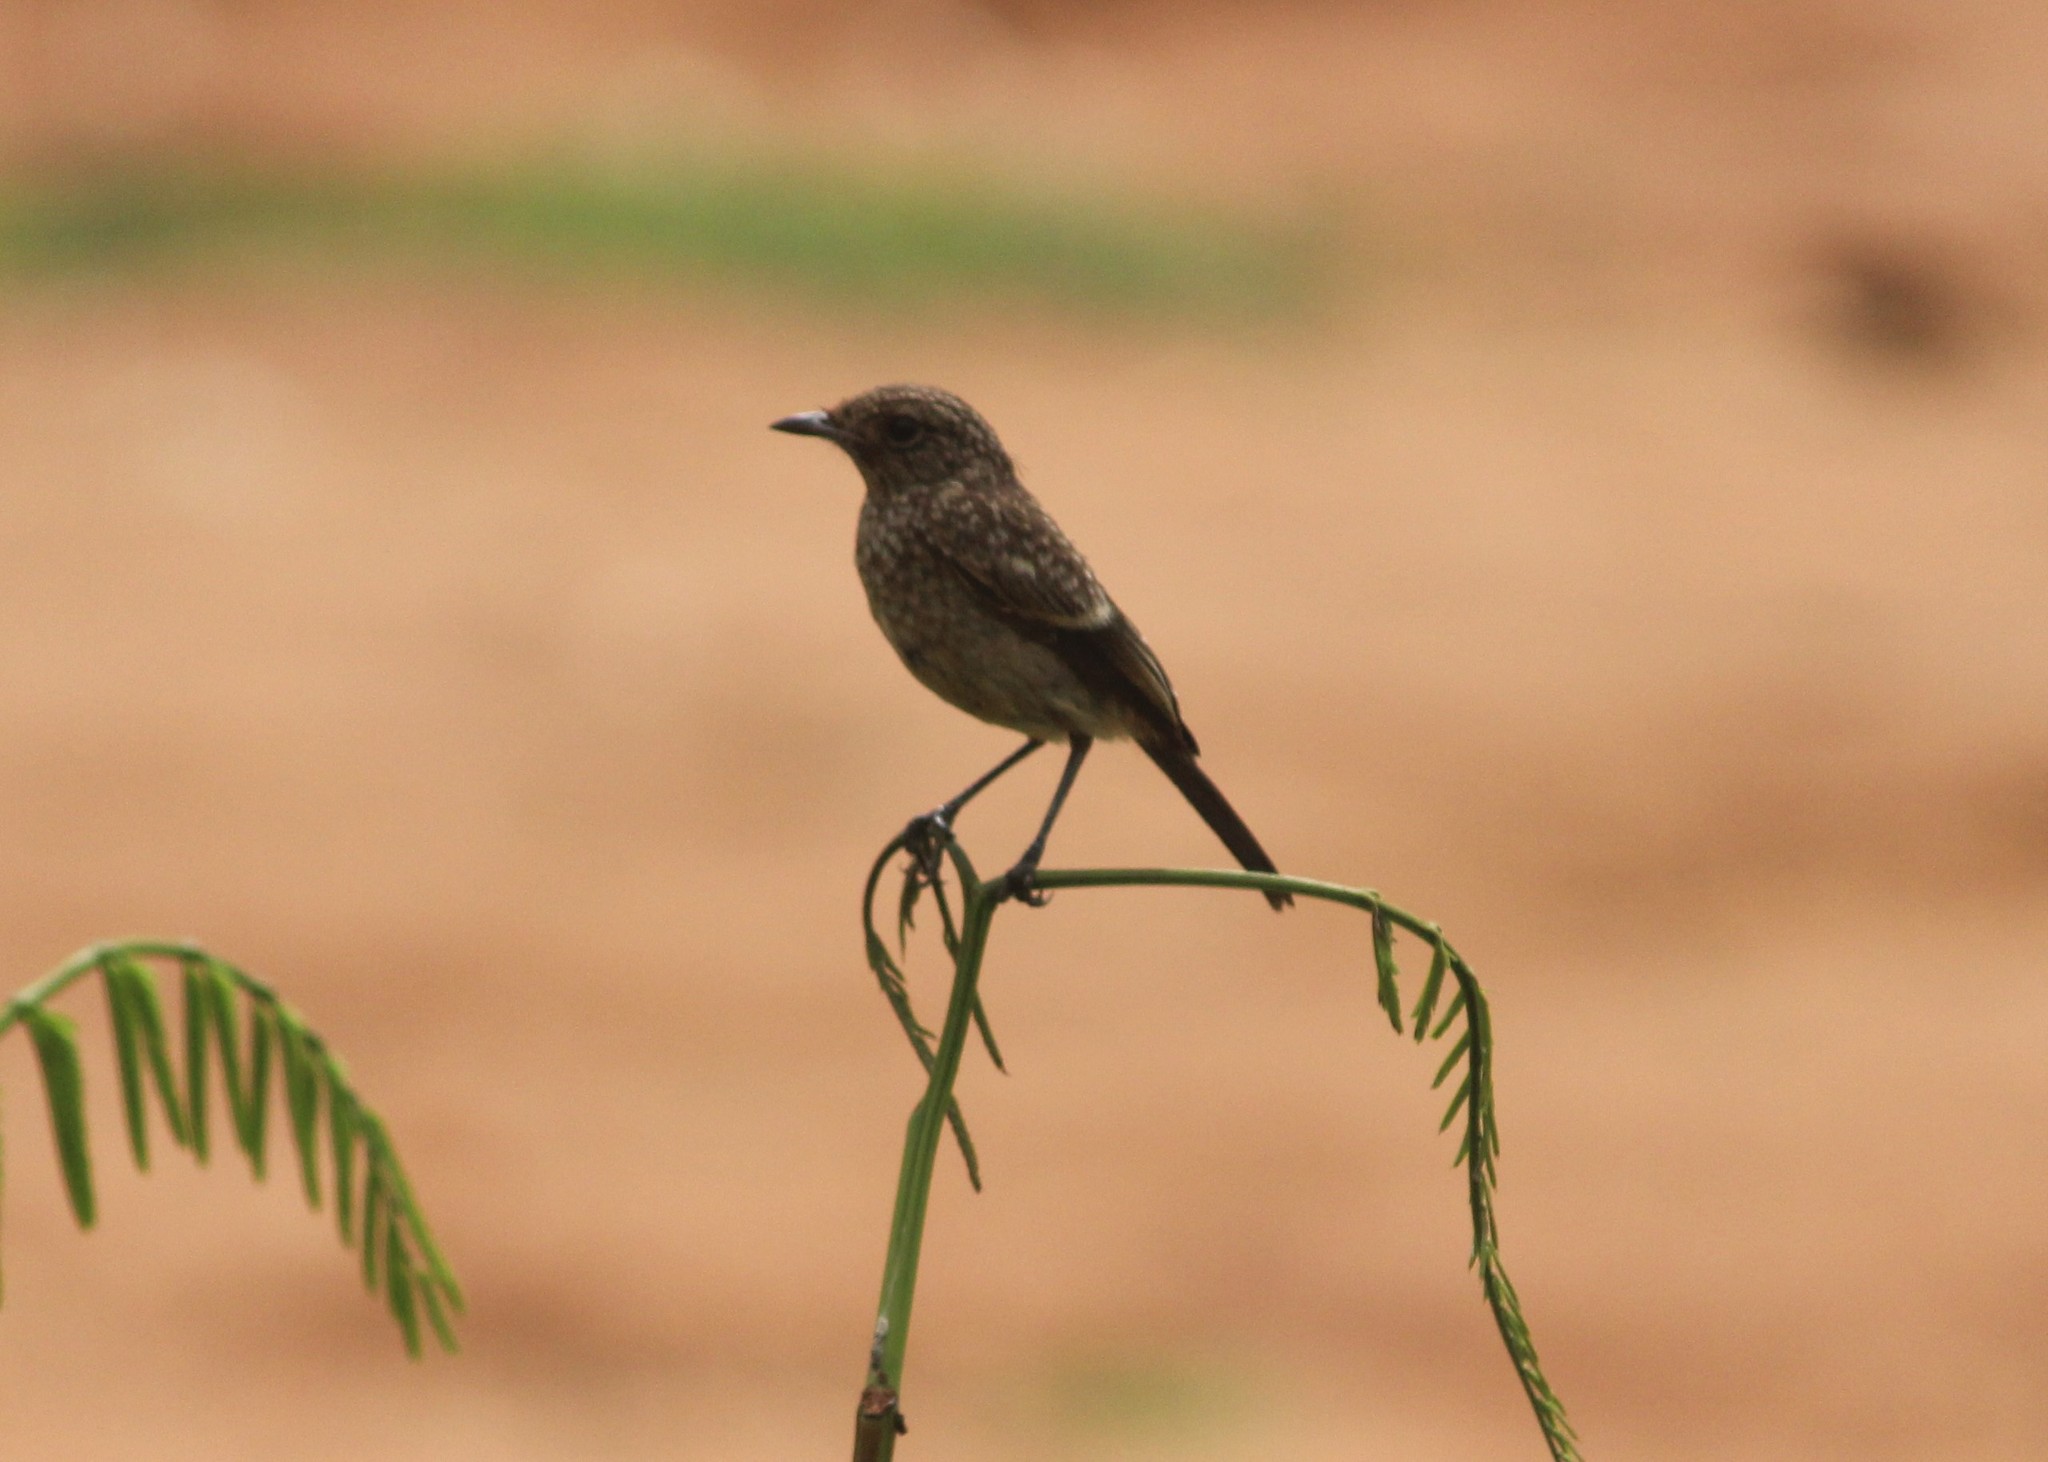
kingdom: Animalia
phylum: Chordata
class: Aves
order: Passeriformes
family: Muscicapidae
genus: Saxicola
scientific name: Saxicola caprata
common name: Pied bush chat
